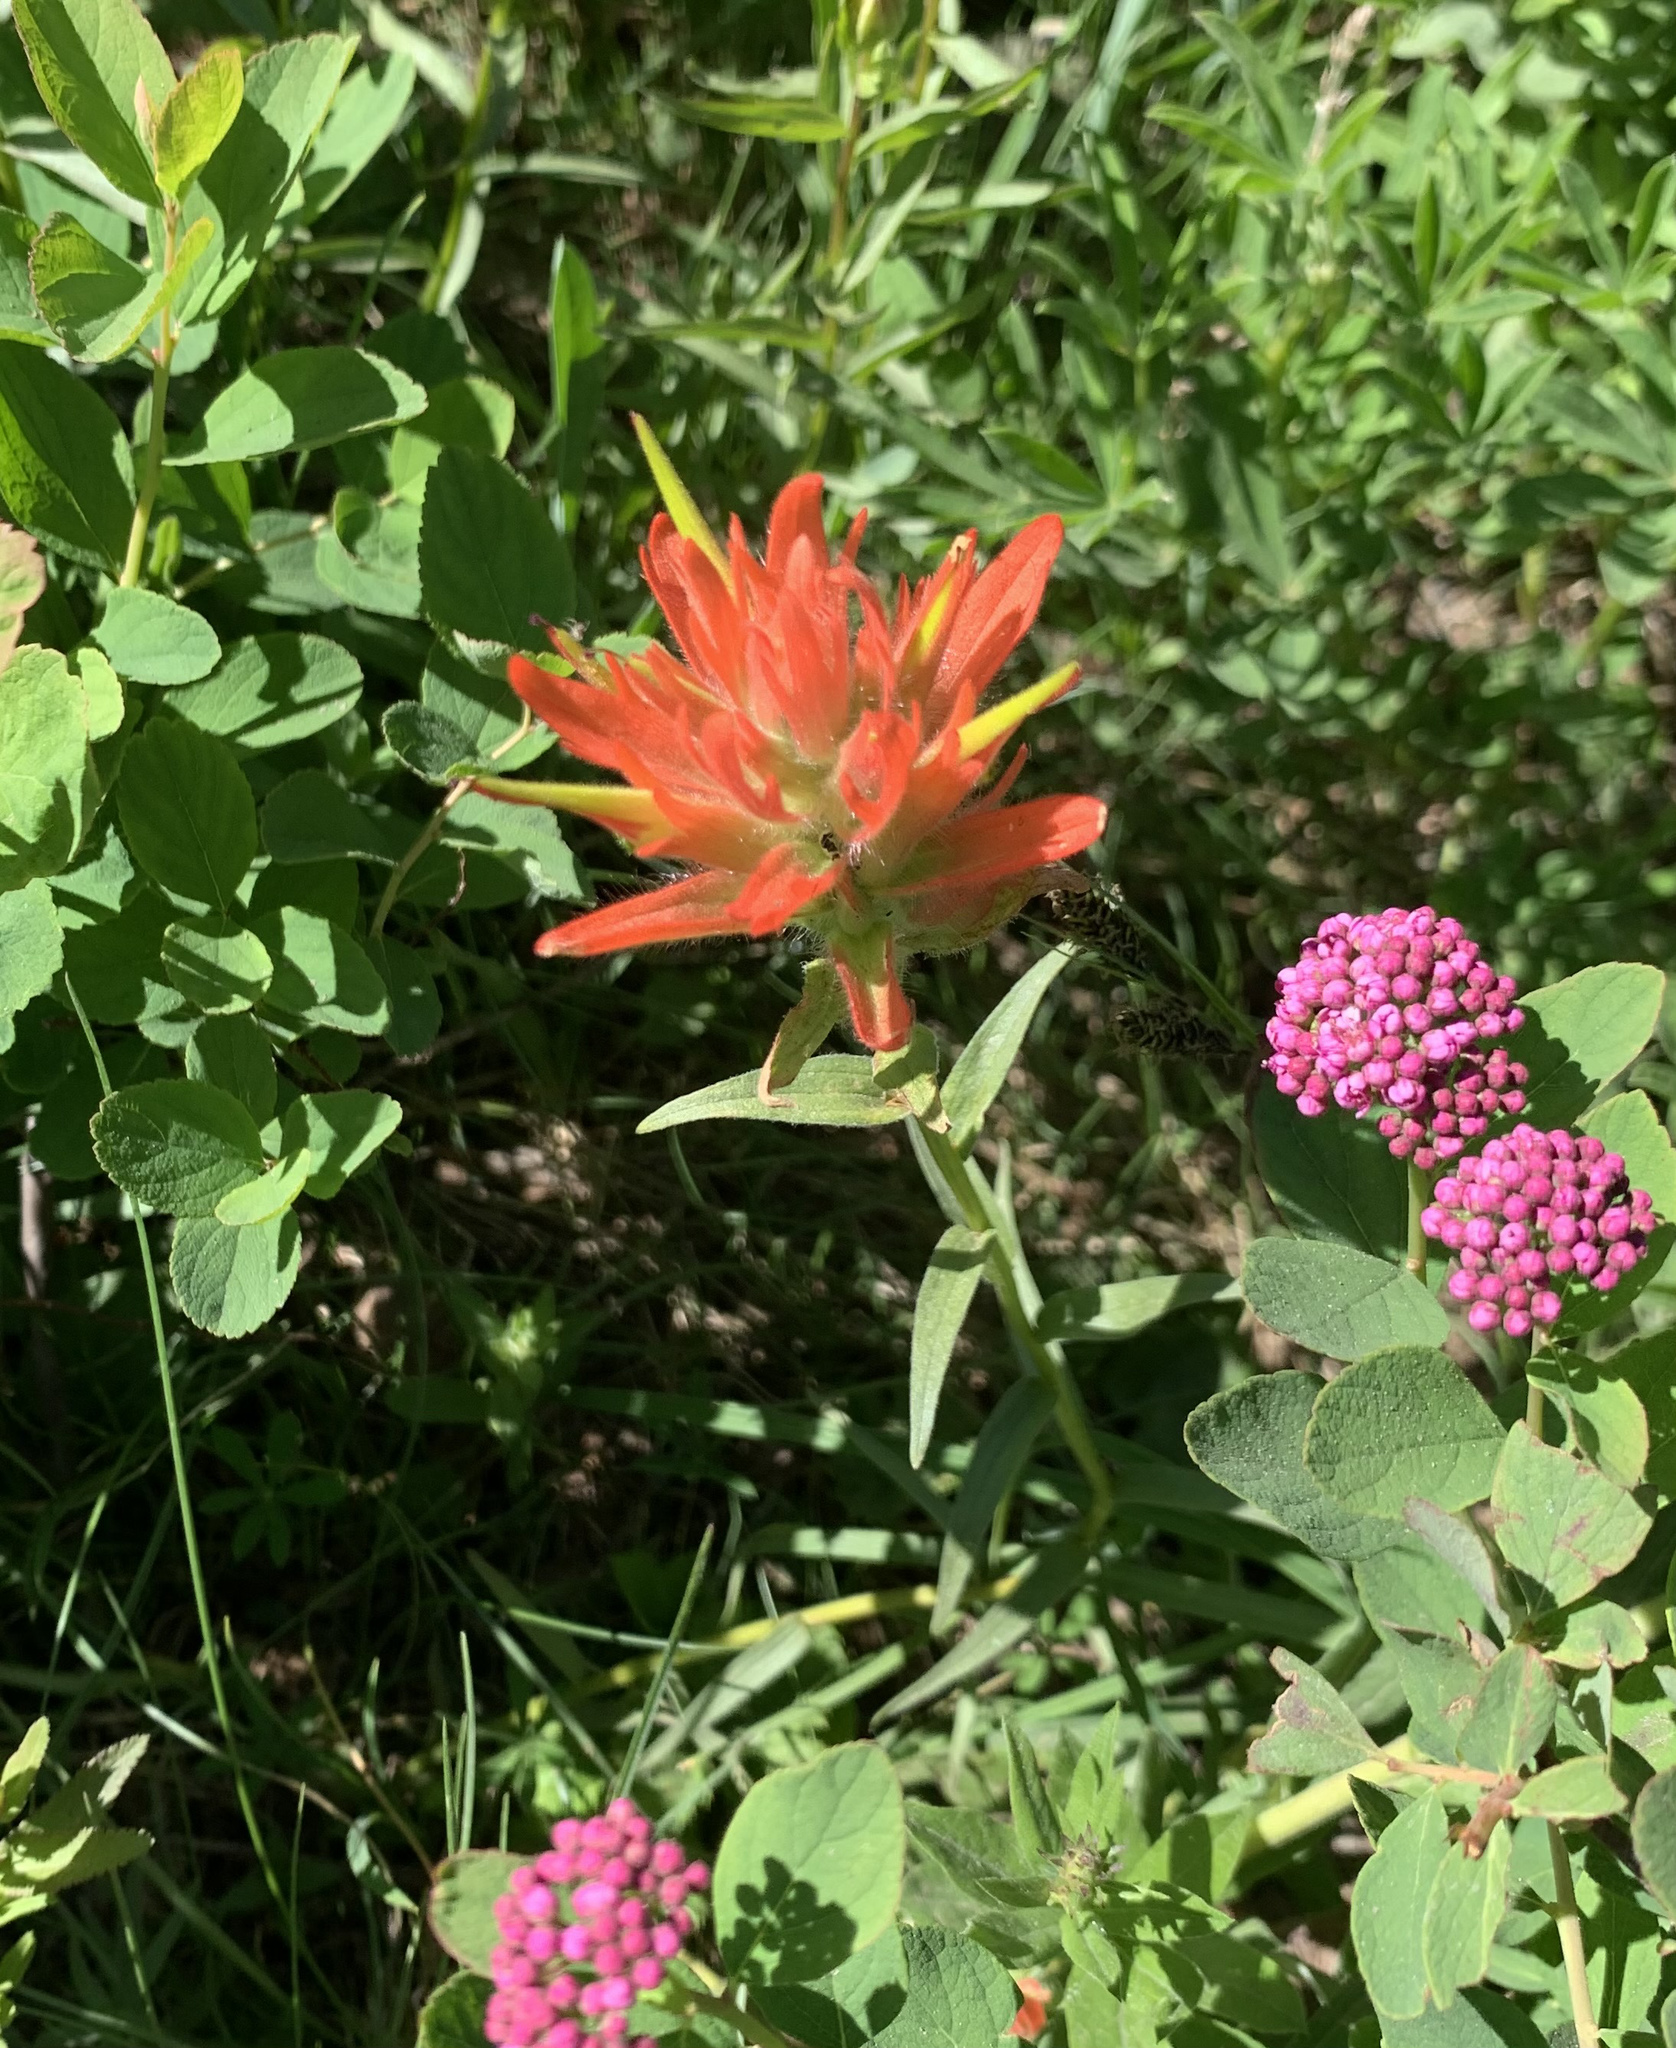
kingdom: Plantae
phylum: Tracheophyta
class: Magnoliopsida
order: Lamiales
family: Orobanchaceae
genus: Castilleja
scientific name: Castilleja miniata
